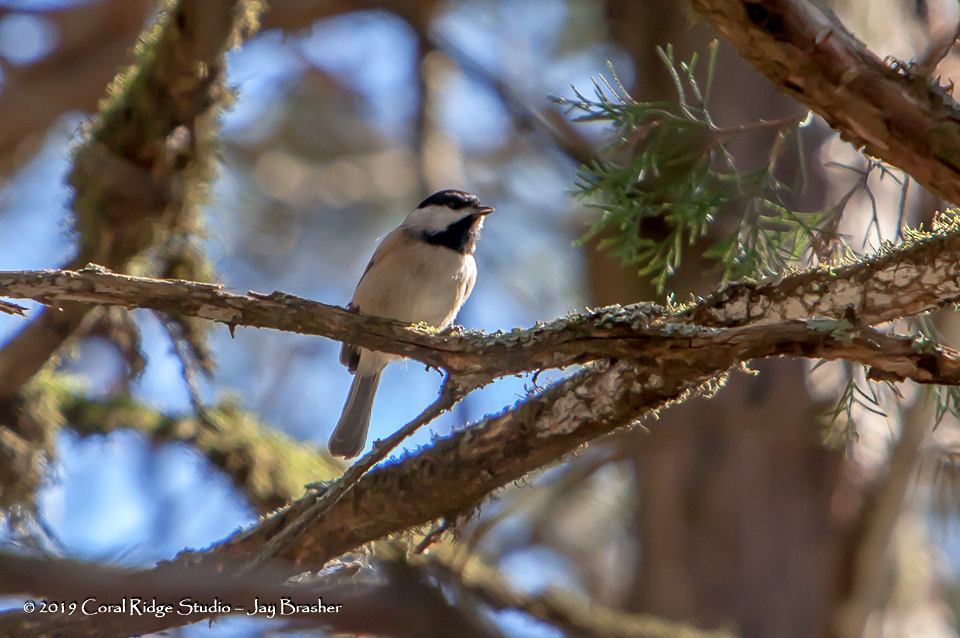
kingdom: Animalia
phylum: Chordata
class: Aves
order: Passeriformes
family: Paridae
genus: Poecile
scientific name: Poecile carolinensis
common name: Carolina chickadee
